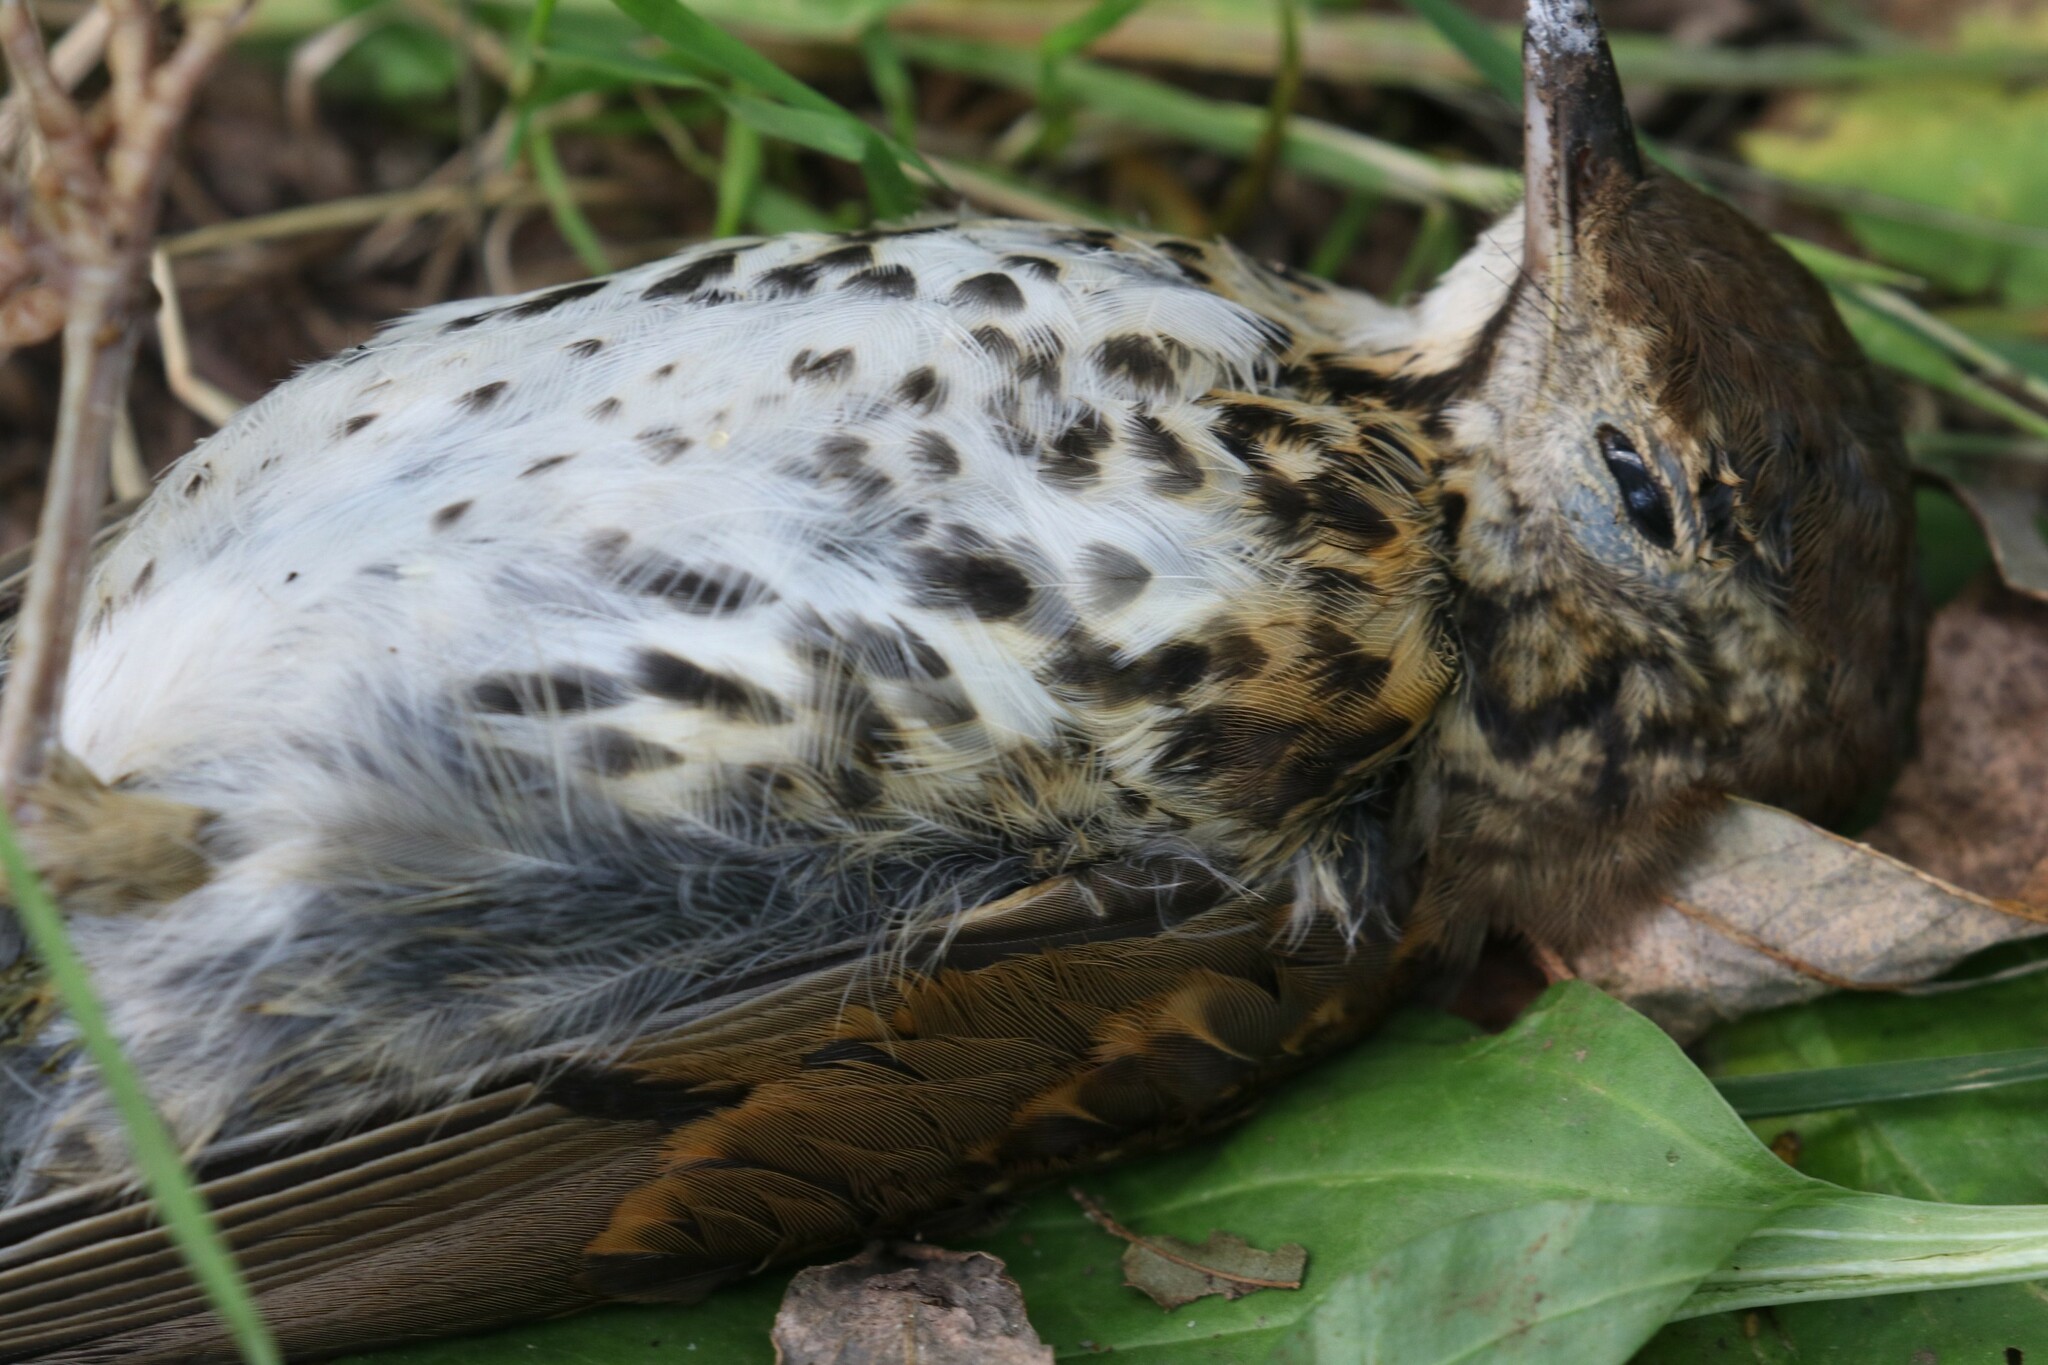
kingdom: Animalia
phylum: Chordata
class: Aves
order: Passeriformes
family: Turdidae
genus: Turdus
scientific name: Turdus philomelos
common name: Song thrush
